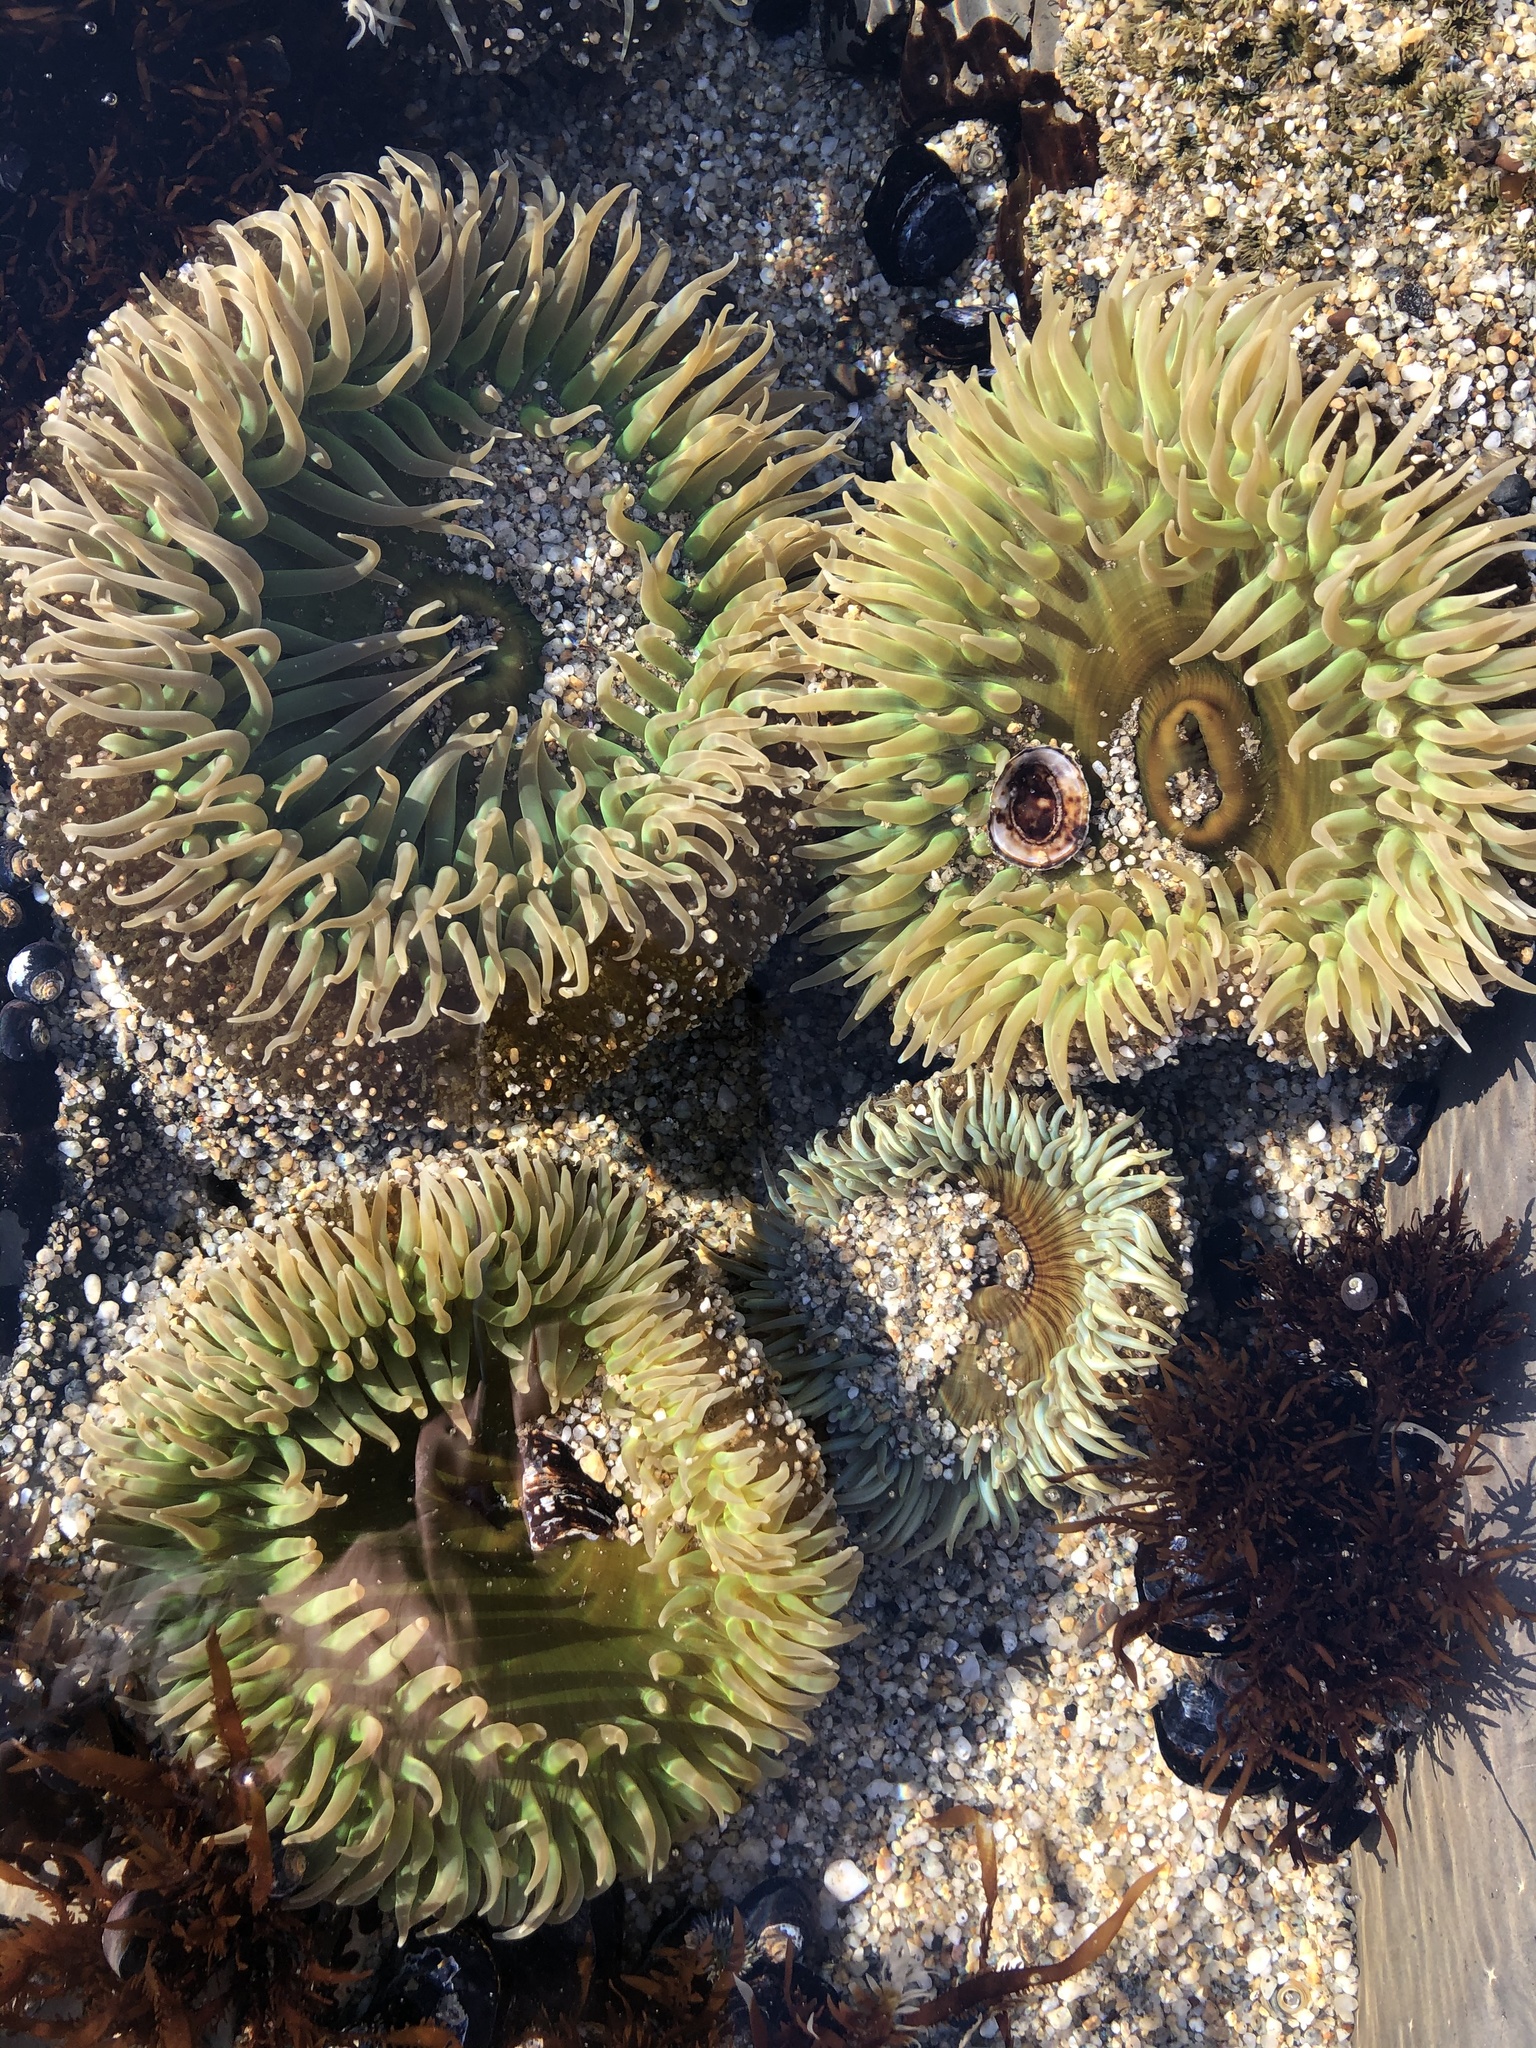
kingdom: Animalia
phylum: Cnidaria
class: Anthozoa
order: Actiniaria
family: Actiniidae
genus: Anthopleura
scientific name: Anthopleura xanthogrammica
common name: Giant green anemone
